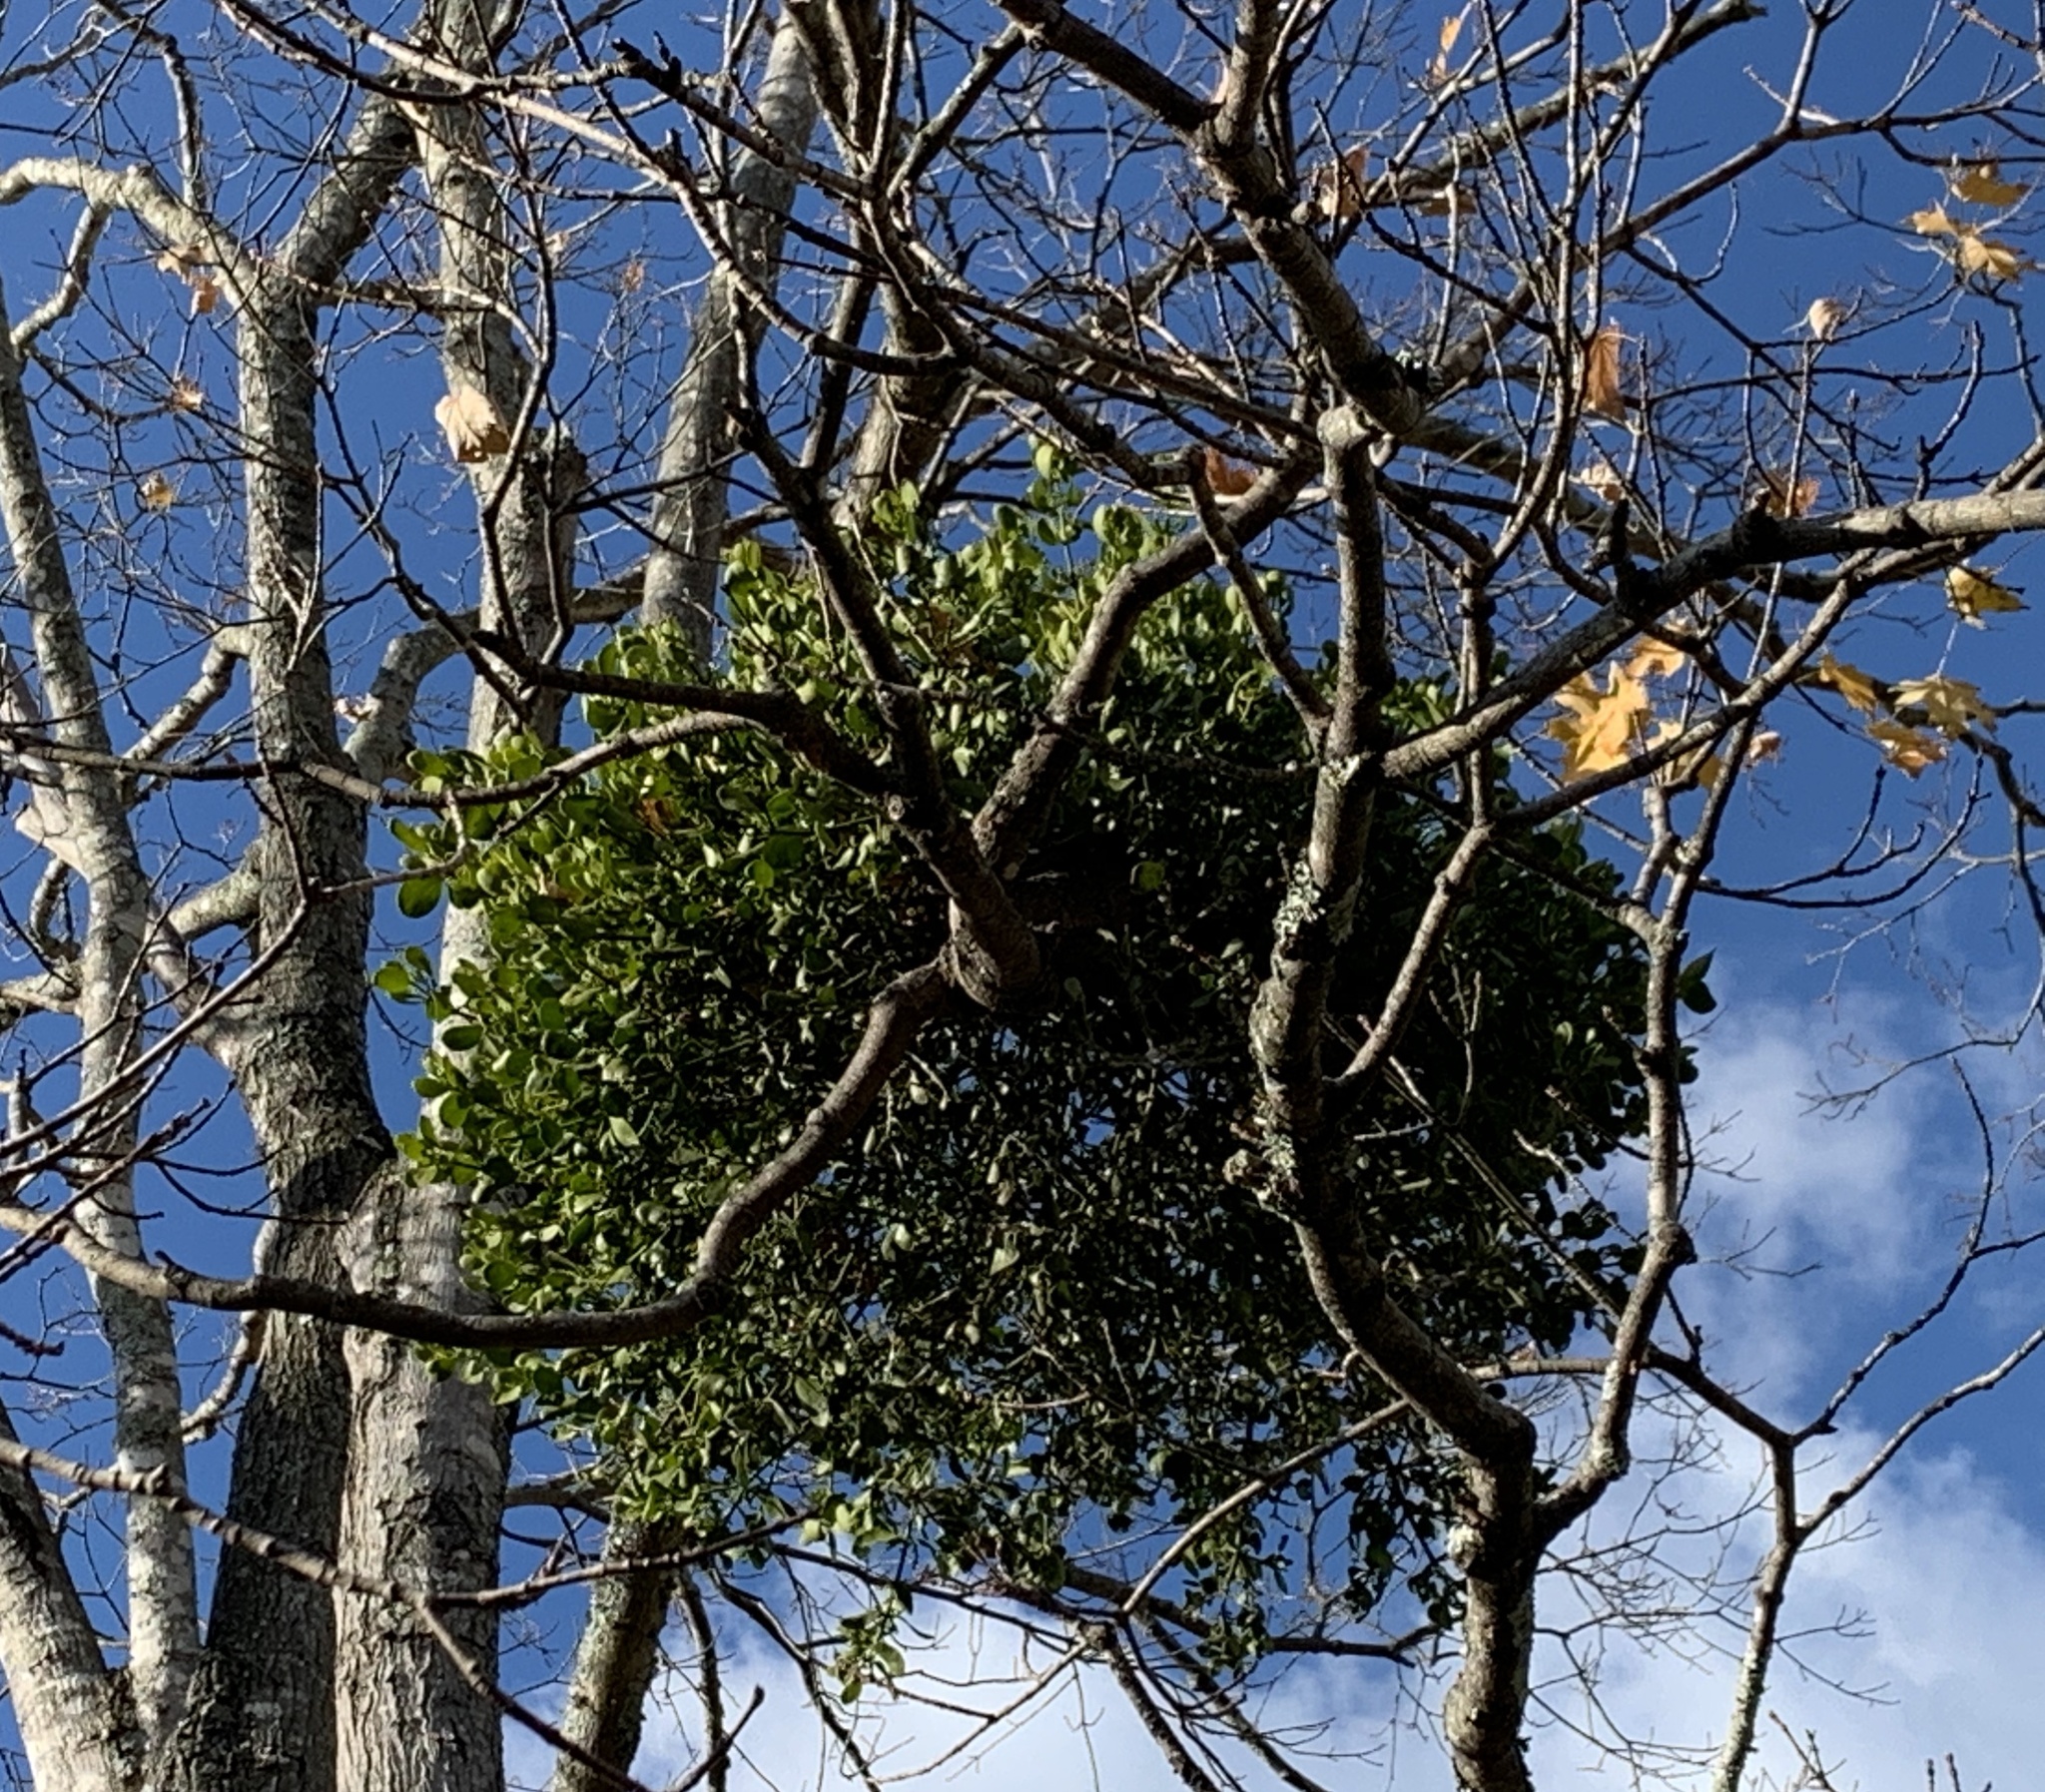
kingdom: Plantae
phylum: Tracheophyta
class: Magnoliopsida
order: Santalales
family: Viscaceae
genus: Phoradendron
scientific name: Phoradendron leucarpum
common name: Pacific mistletoe
